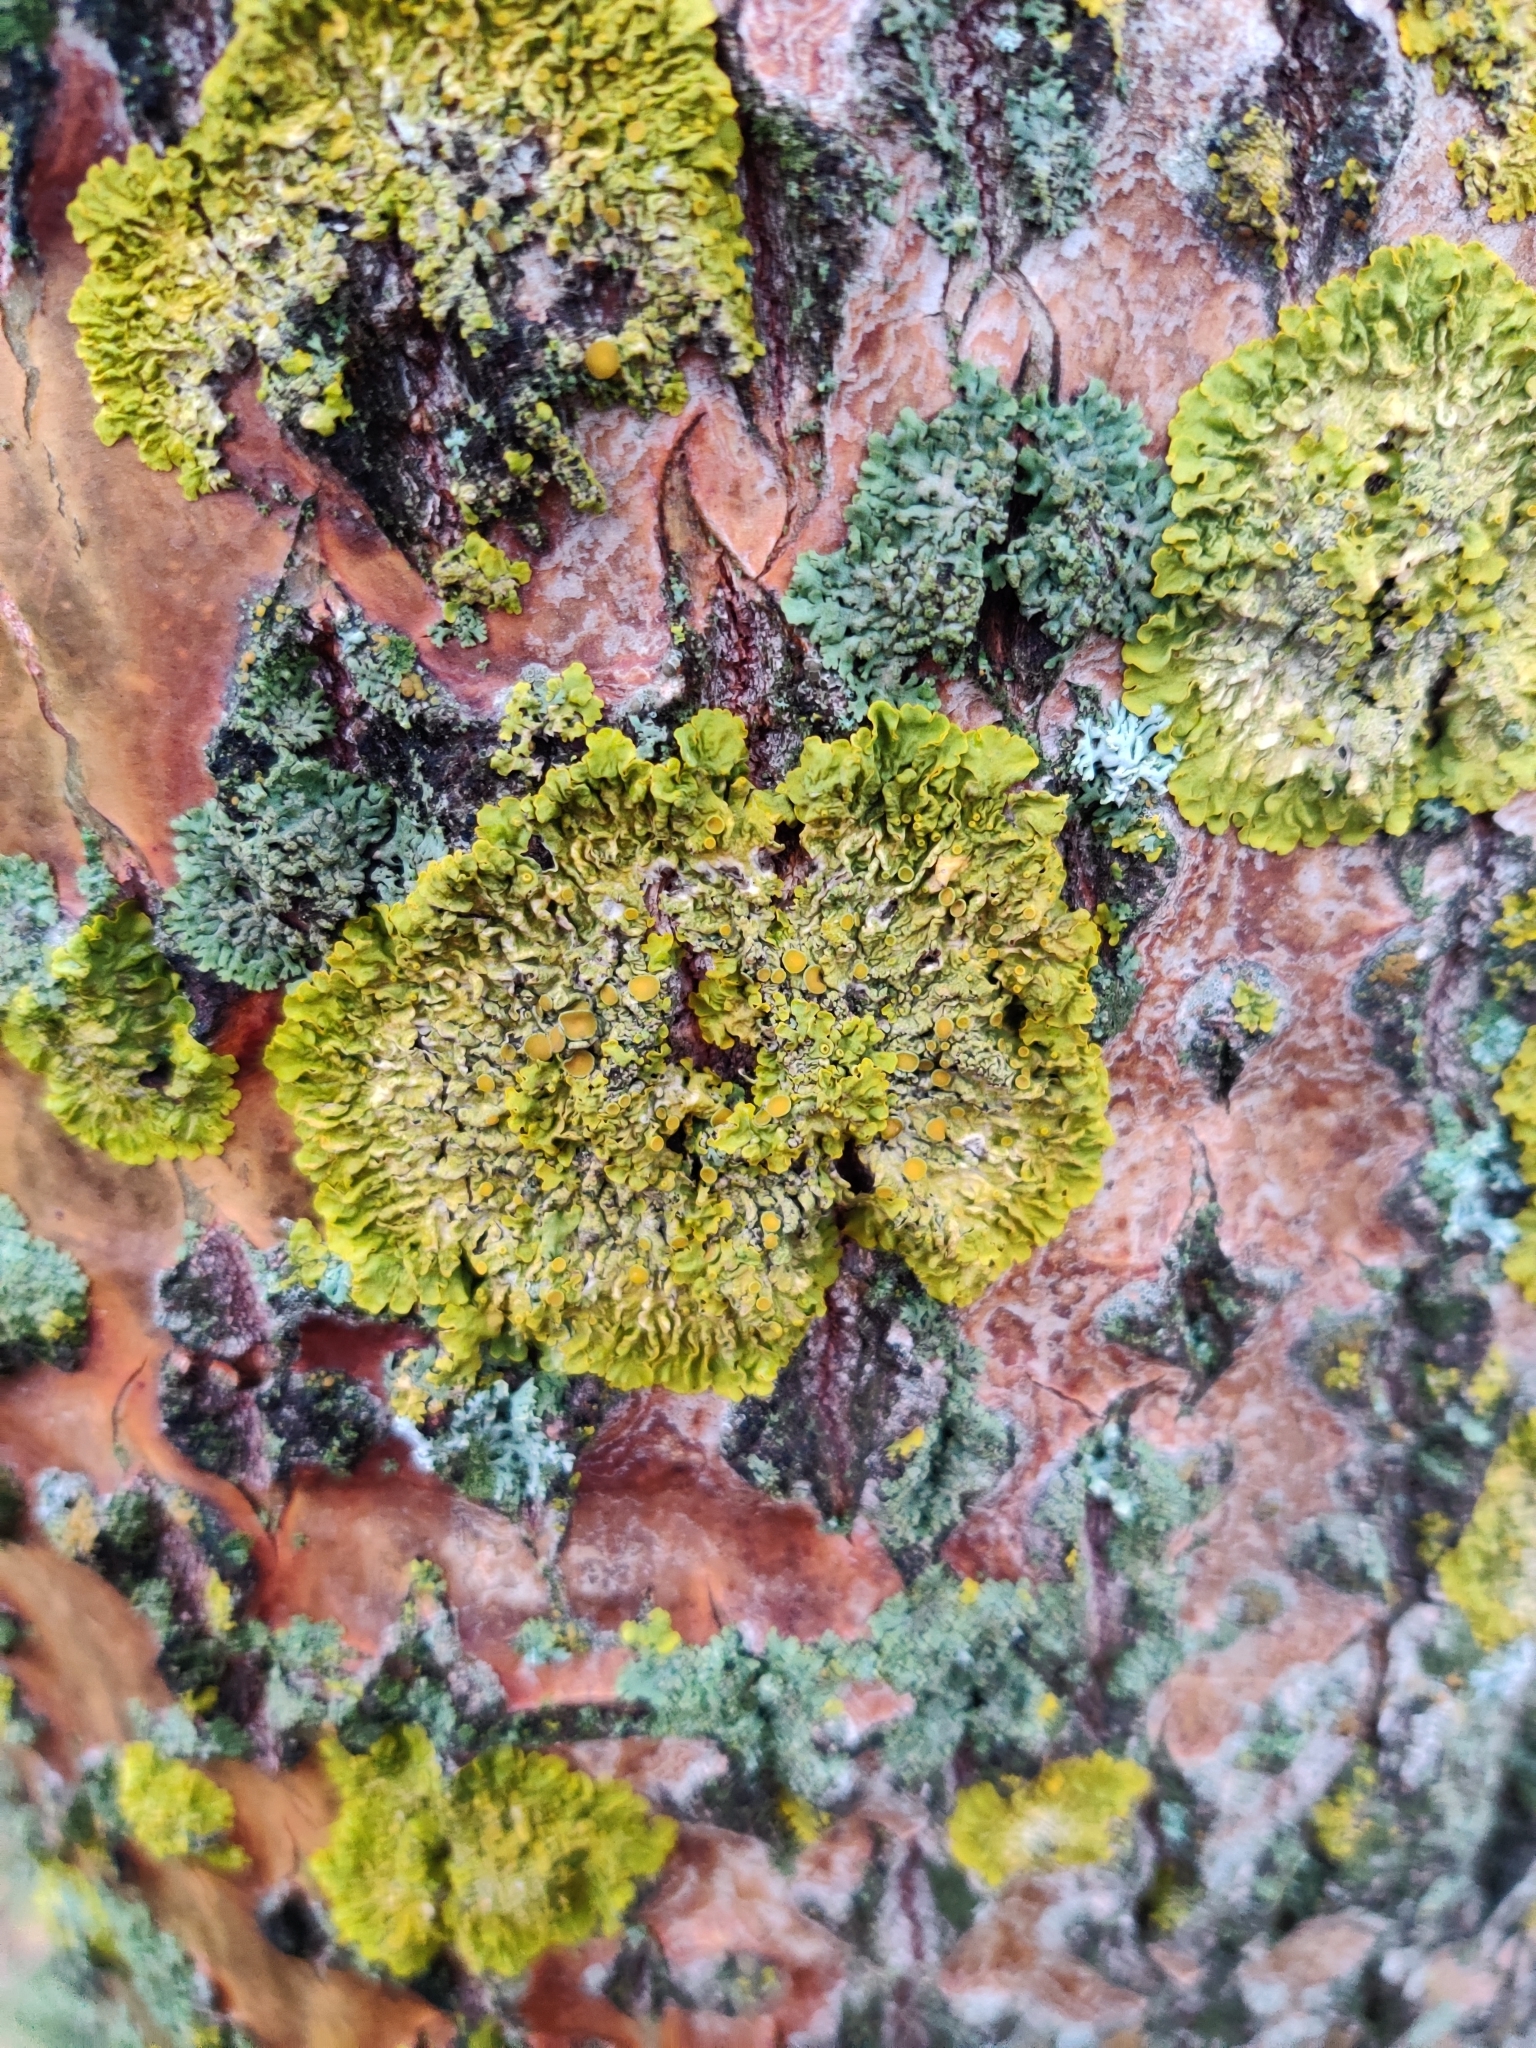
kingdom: Fungi
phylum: Ascomycota
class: Lecanoromycetes
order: Teloschistales
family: Teloschistaceae
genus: Xanthoria
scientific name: Xanthoria parietina
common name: Common orange lichen
